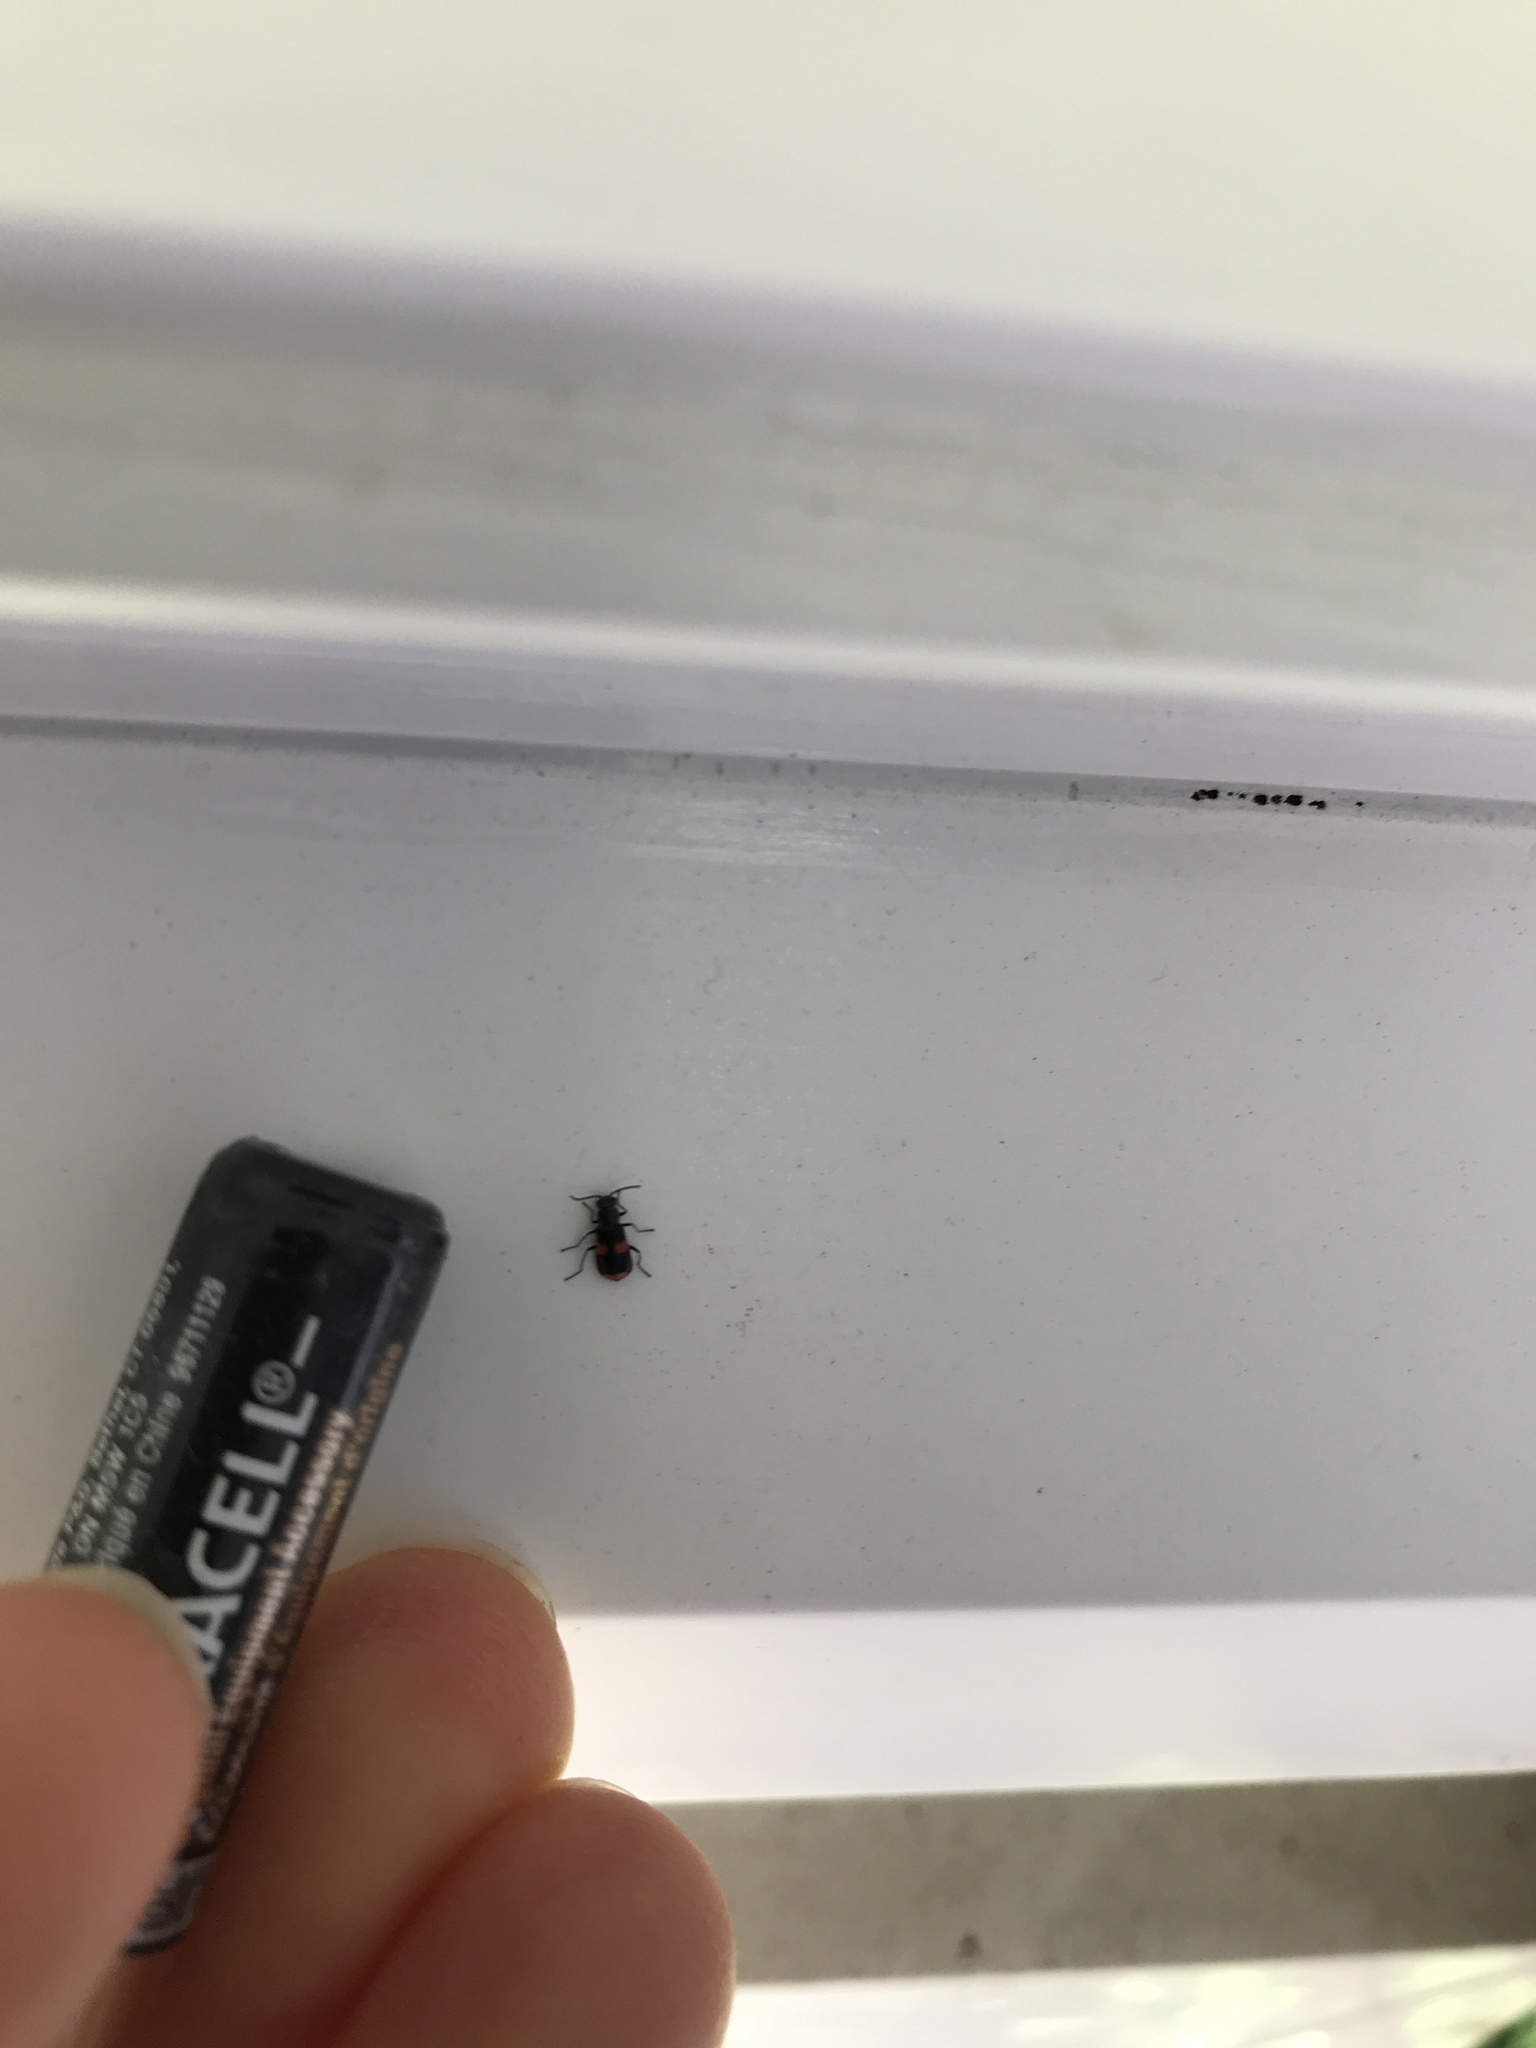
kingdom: Animalia
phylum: Arthropoda
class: Insecta
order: Coleoptera
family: Melyridae
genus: Anthocomus
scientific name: Anthocomus fasciatus
